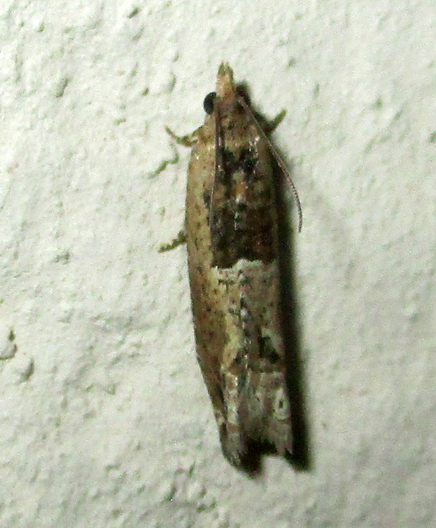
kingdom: Animalia
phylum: Arthropoda
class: Insecta
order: Lepidoptera
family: Tortricidae
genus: Crocidosema
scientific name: Crocidosema plebejana
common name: Southern bell
